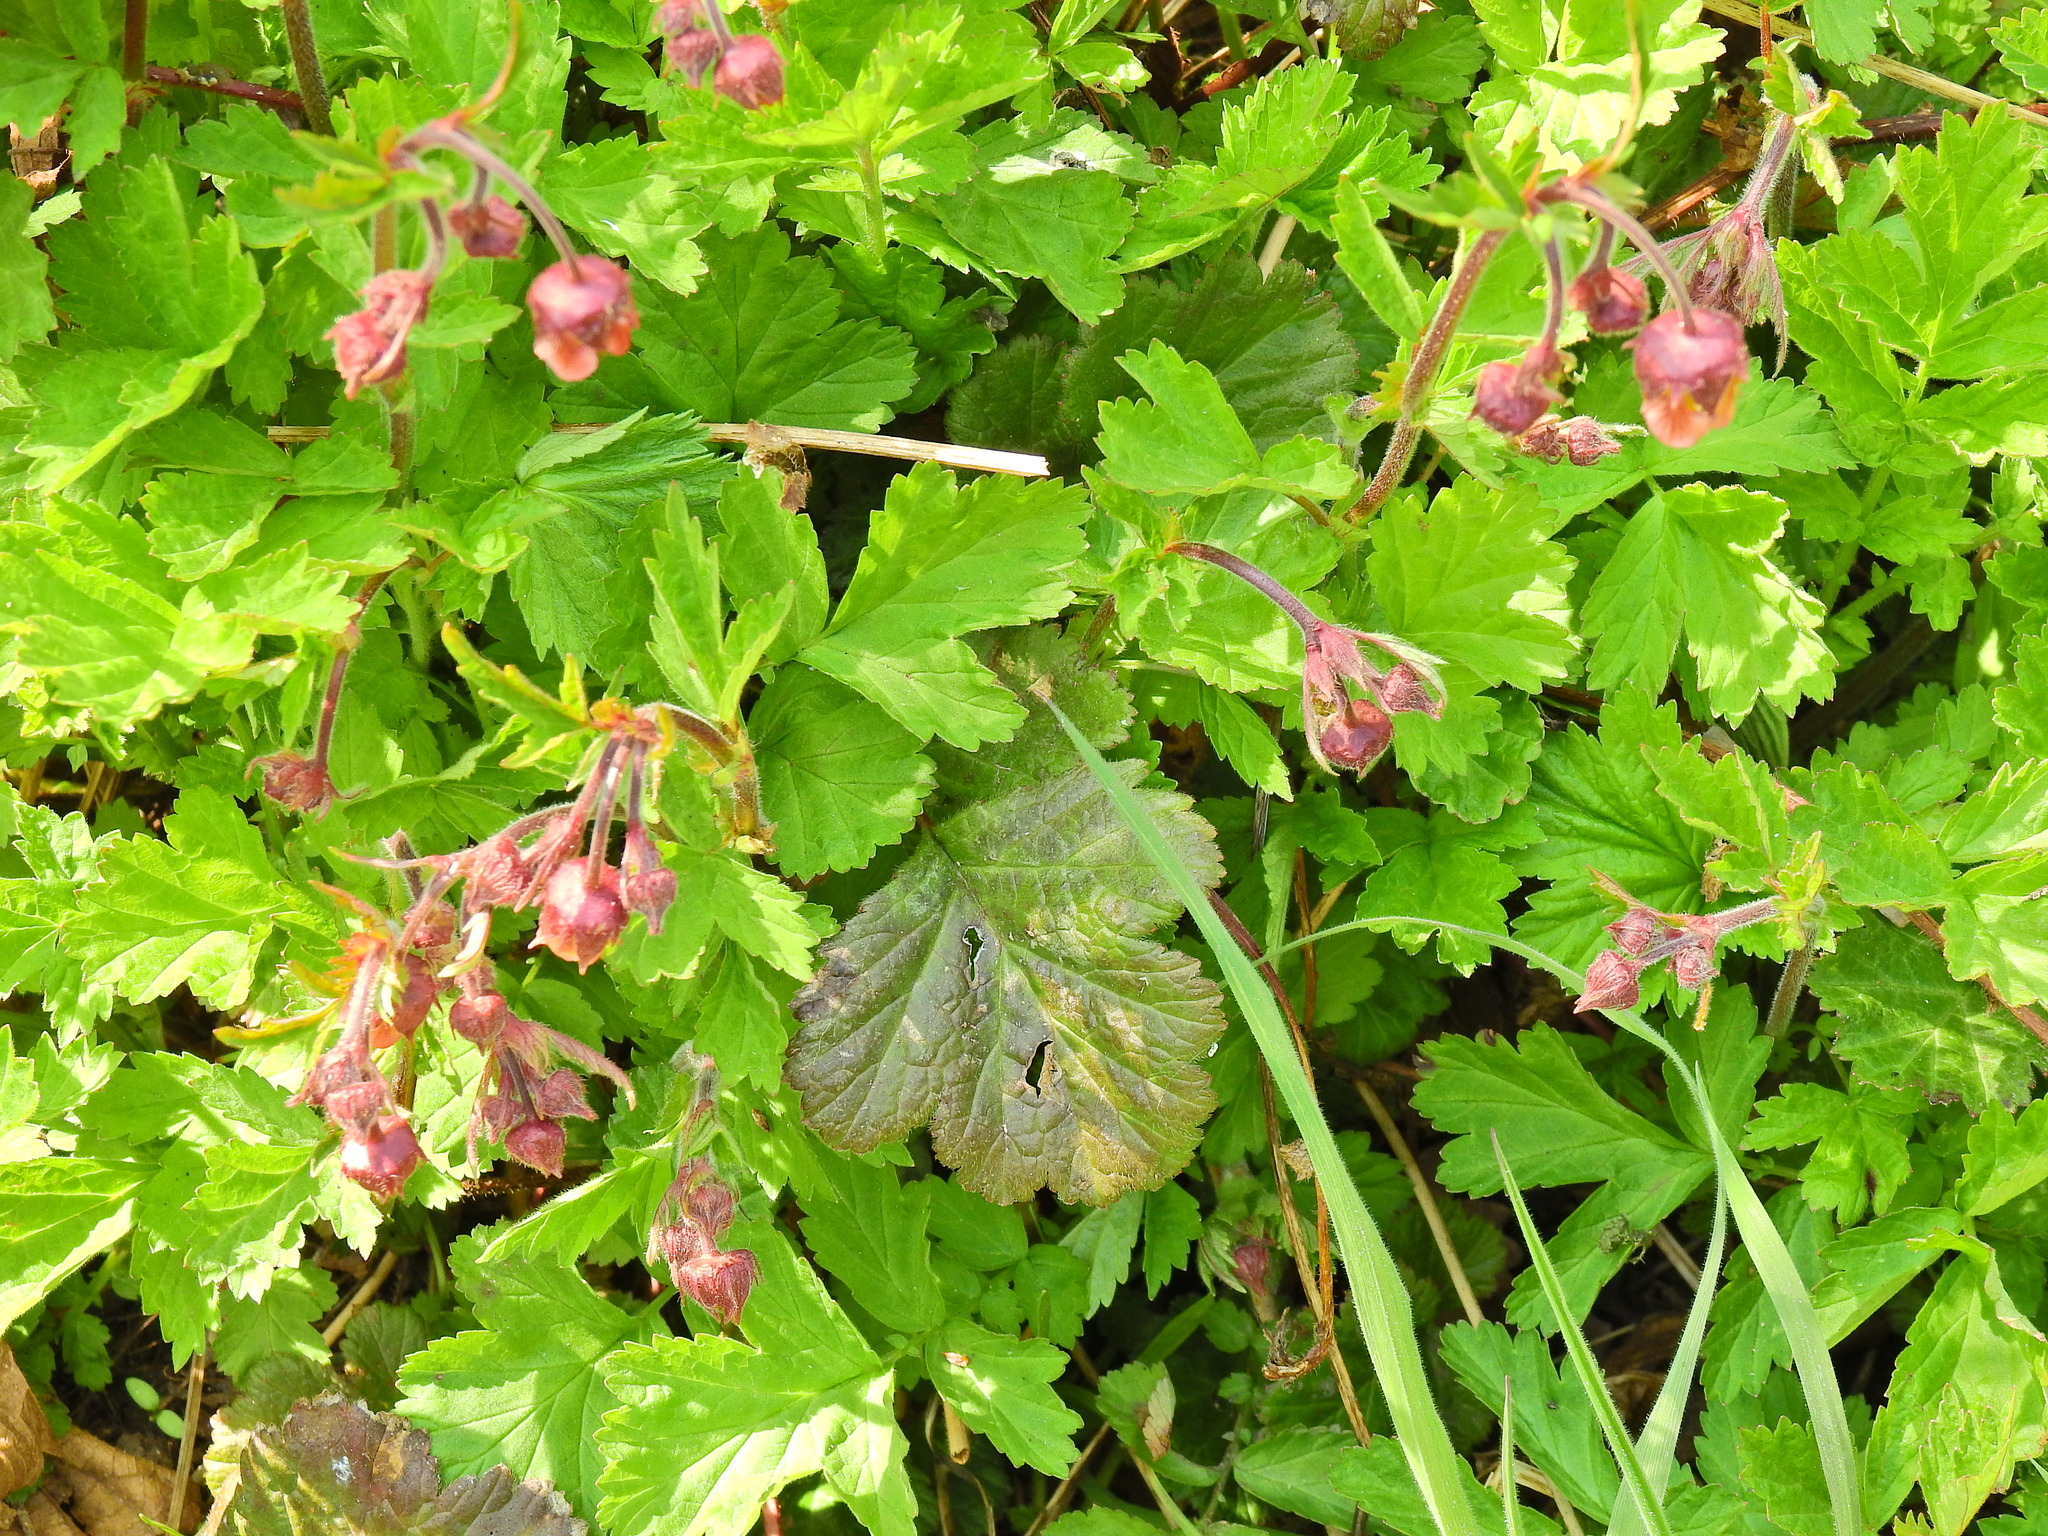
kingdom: Plantae
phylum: Tracheophyta
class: Magnoliopsida
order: Rosales
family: Rosaceae
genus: Geum
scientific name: Geum rivale
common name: Water avens
